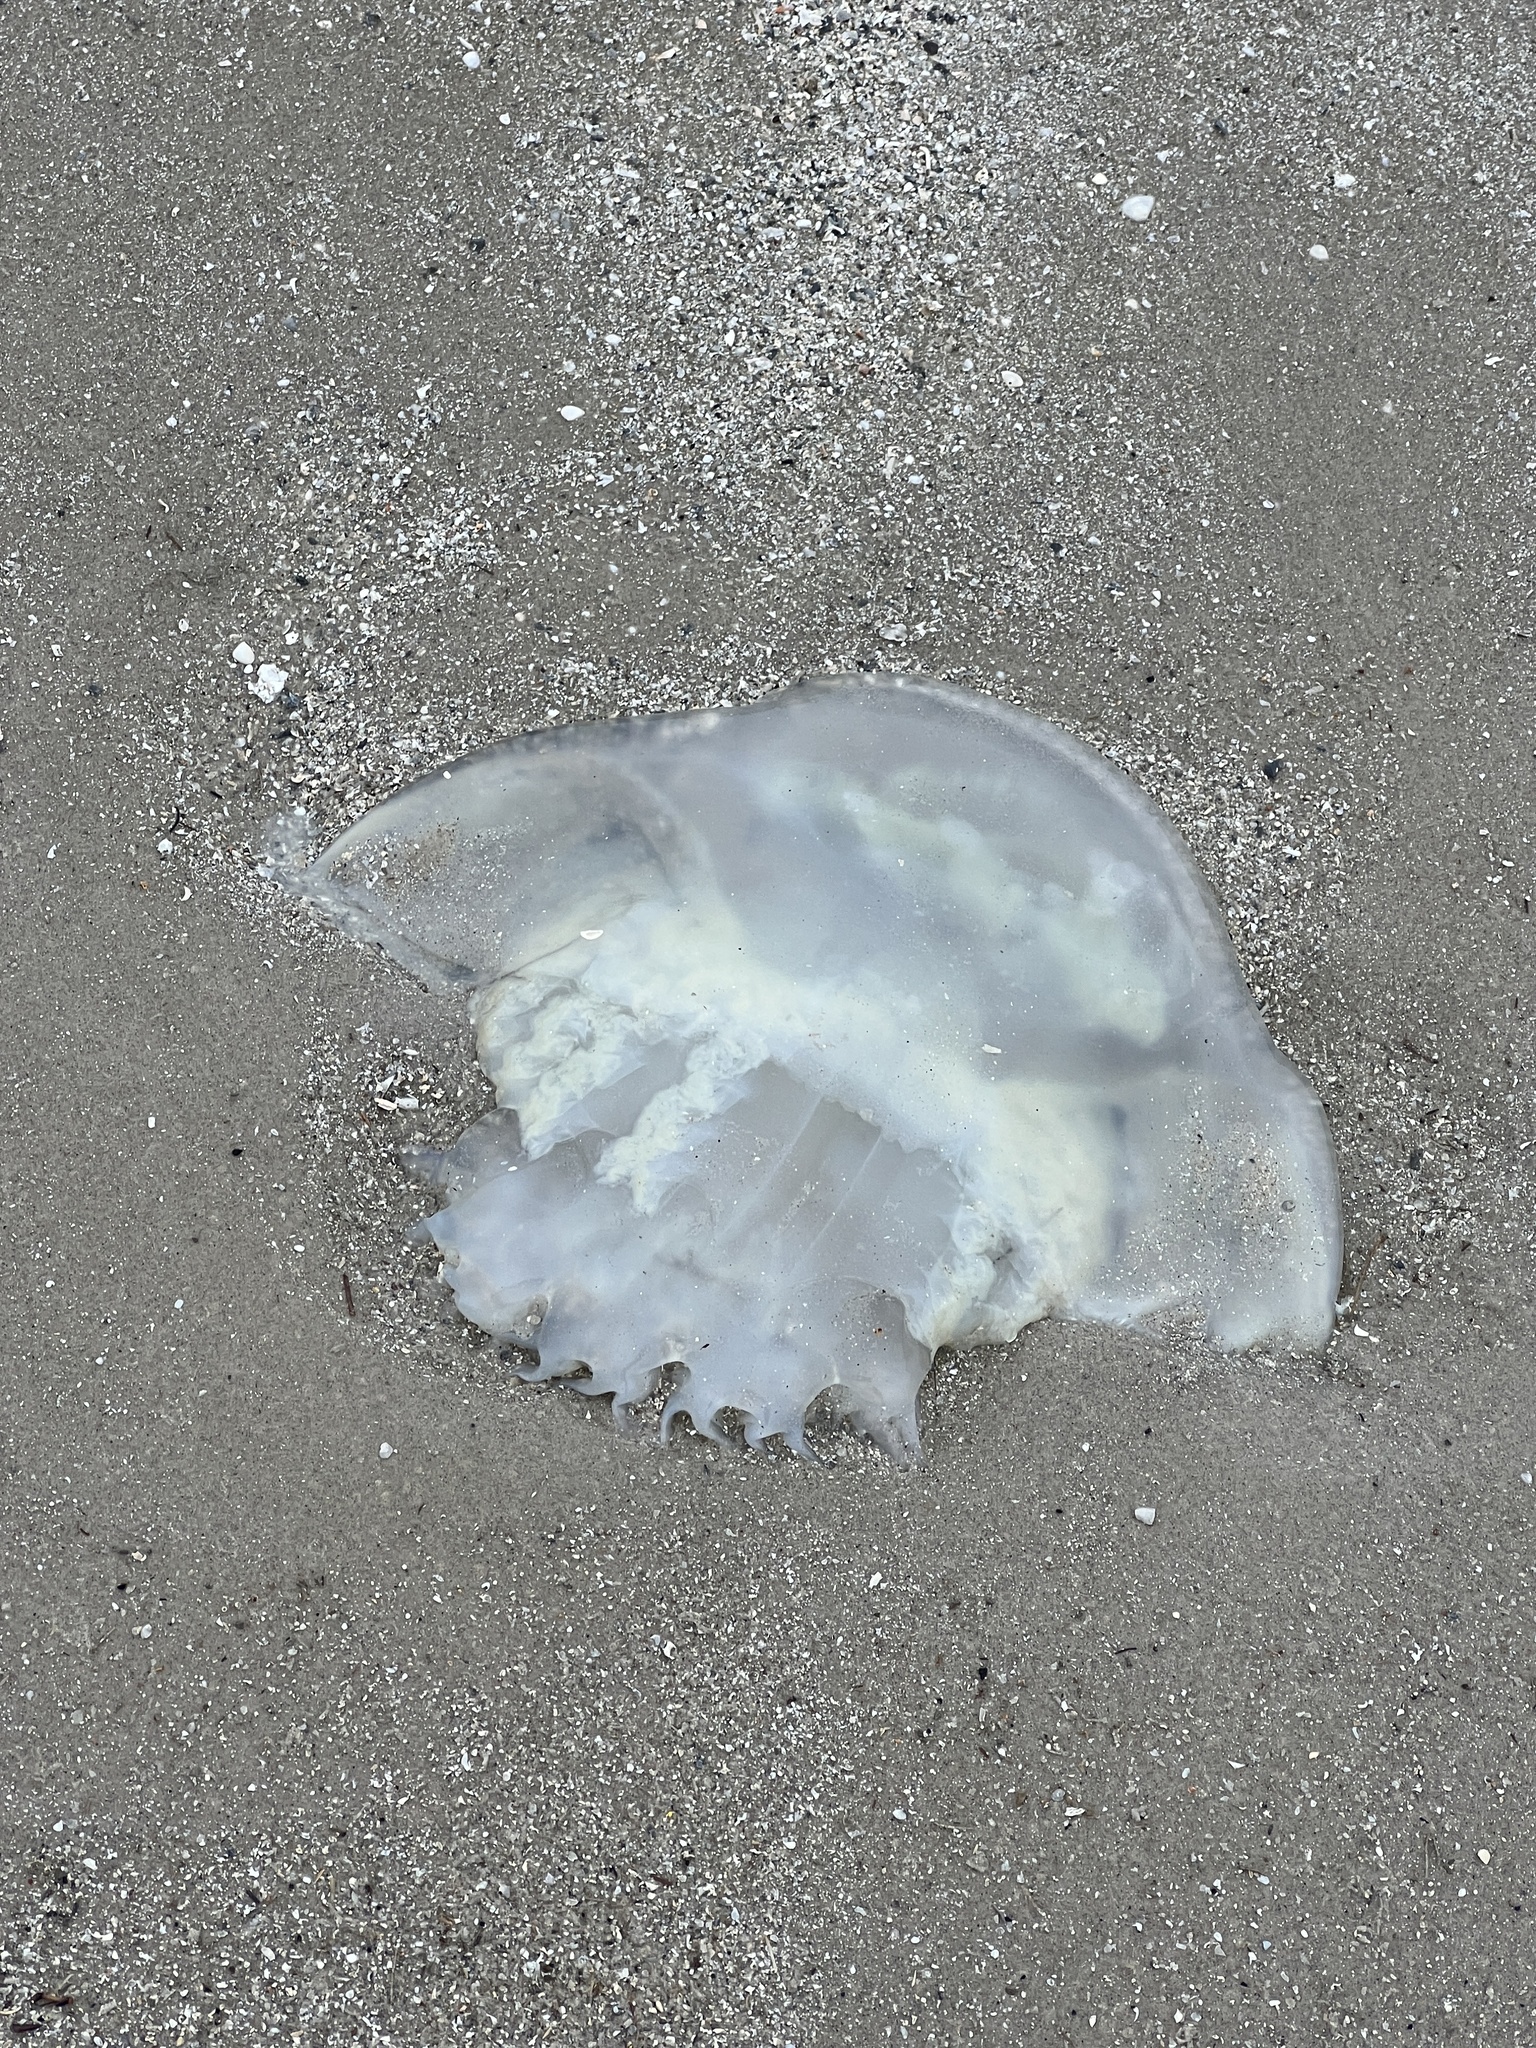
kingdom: Animalia
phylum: Cnidaria
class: Scyphozoa
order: Rhizostomeae
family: Stomolophidae
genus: Stomolophus
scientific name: Stomolophus meleagris
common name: Cabbagehead
